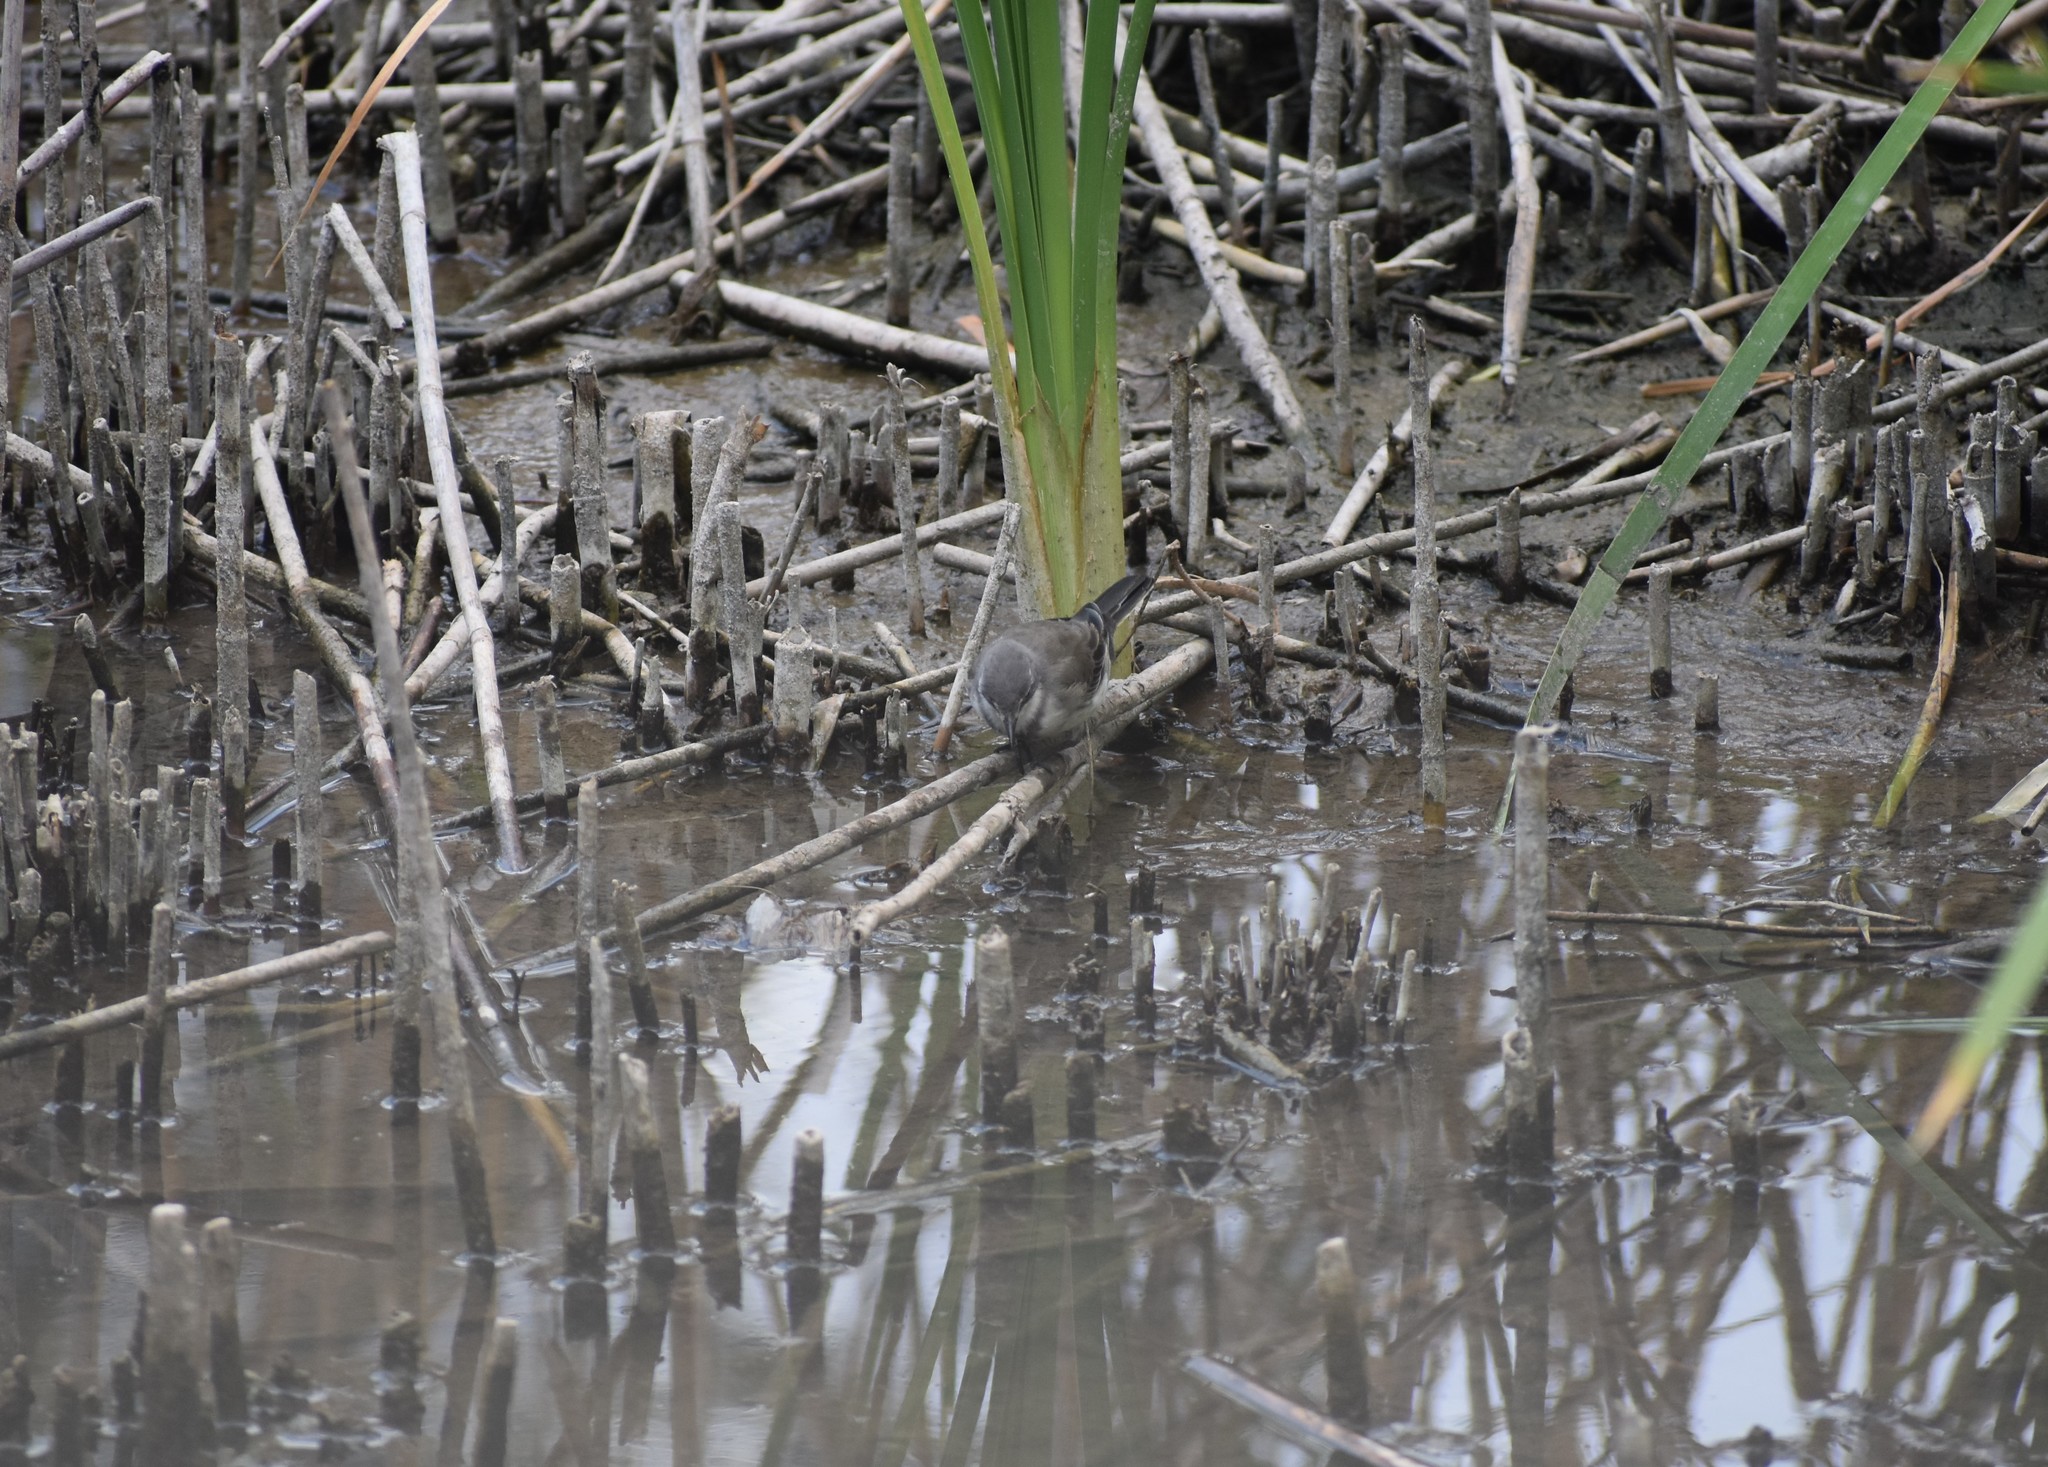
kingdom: Animalia
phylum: Chordata
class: Aves
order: Passeriformes
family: Motacillidae
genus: Motacilla
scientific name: Motacilla capensis
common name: Cape wagtail
